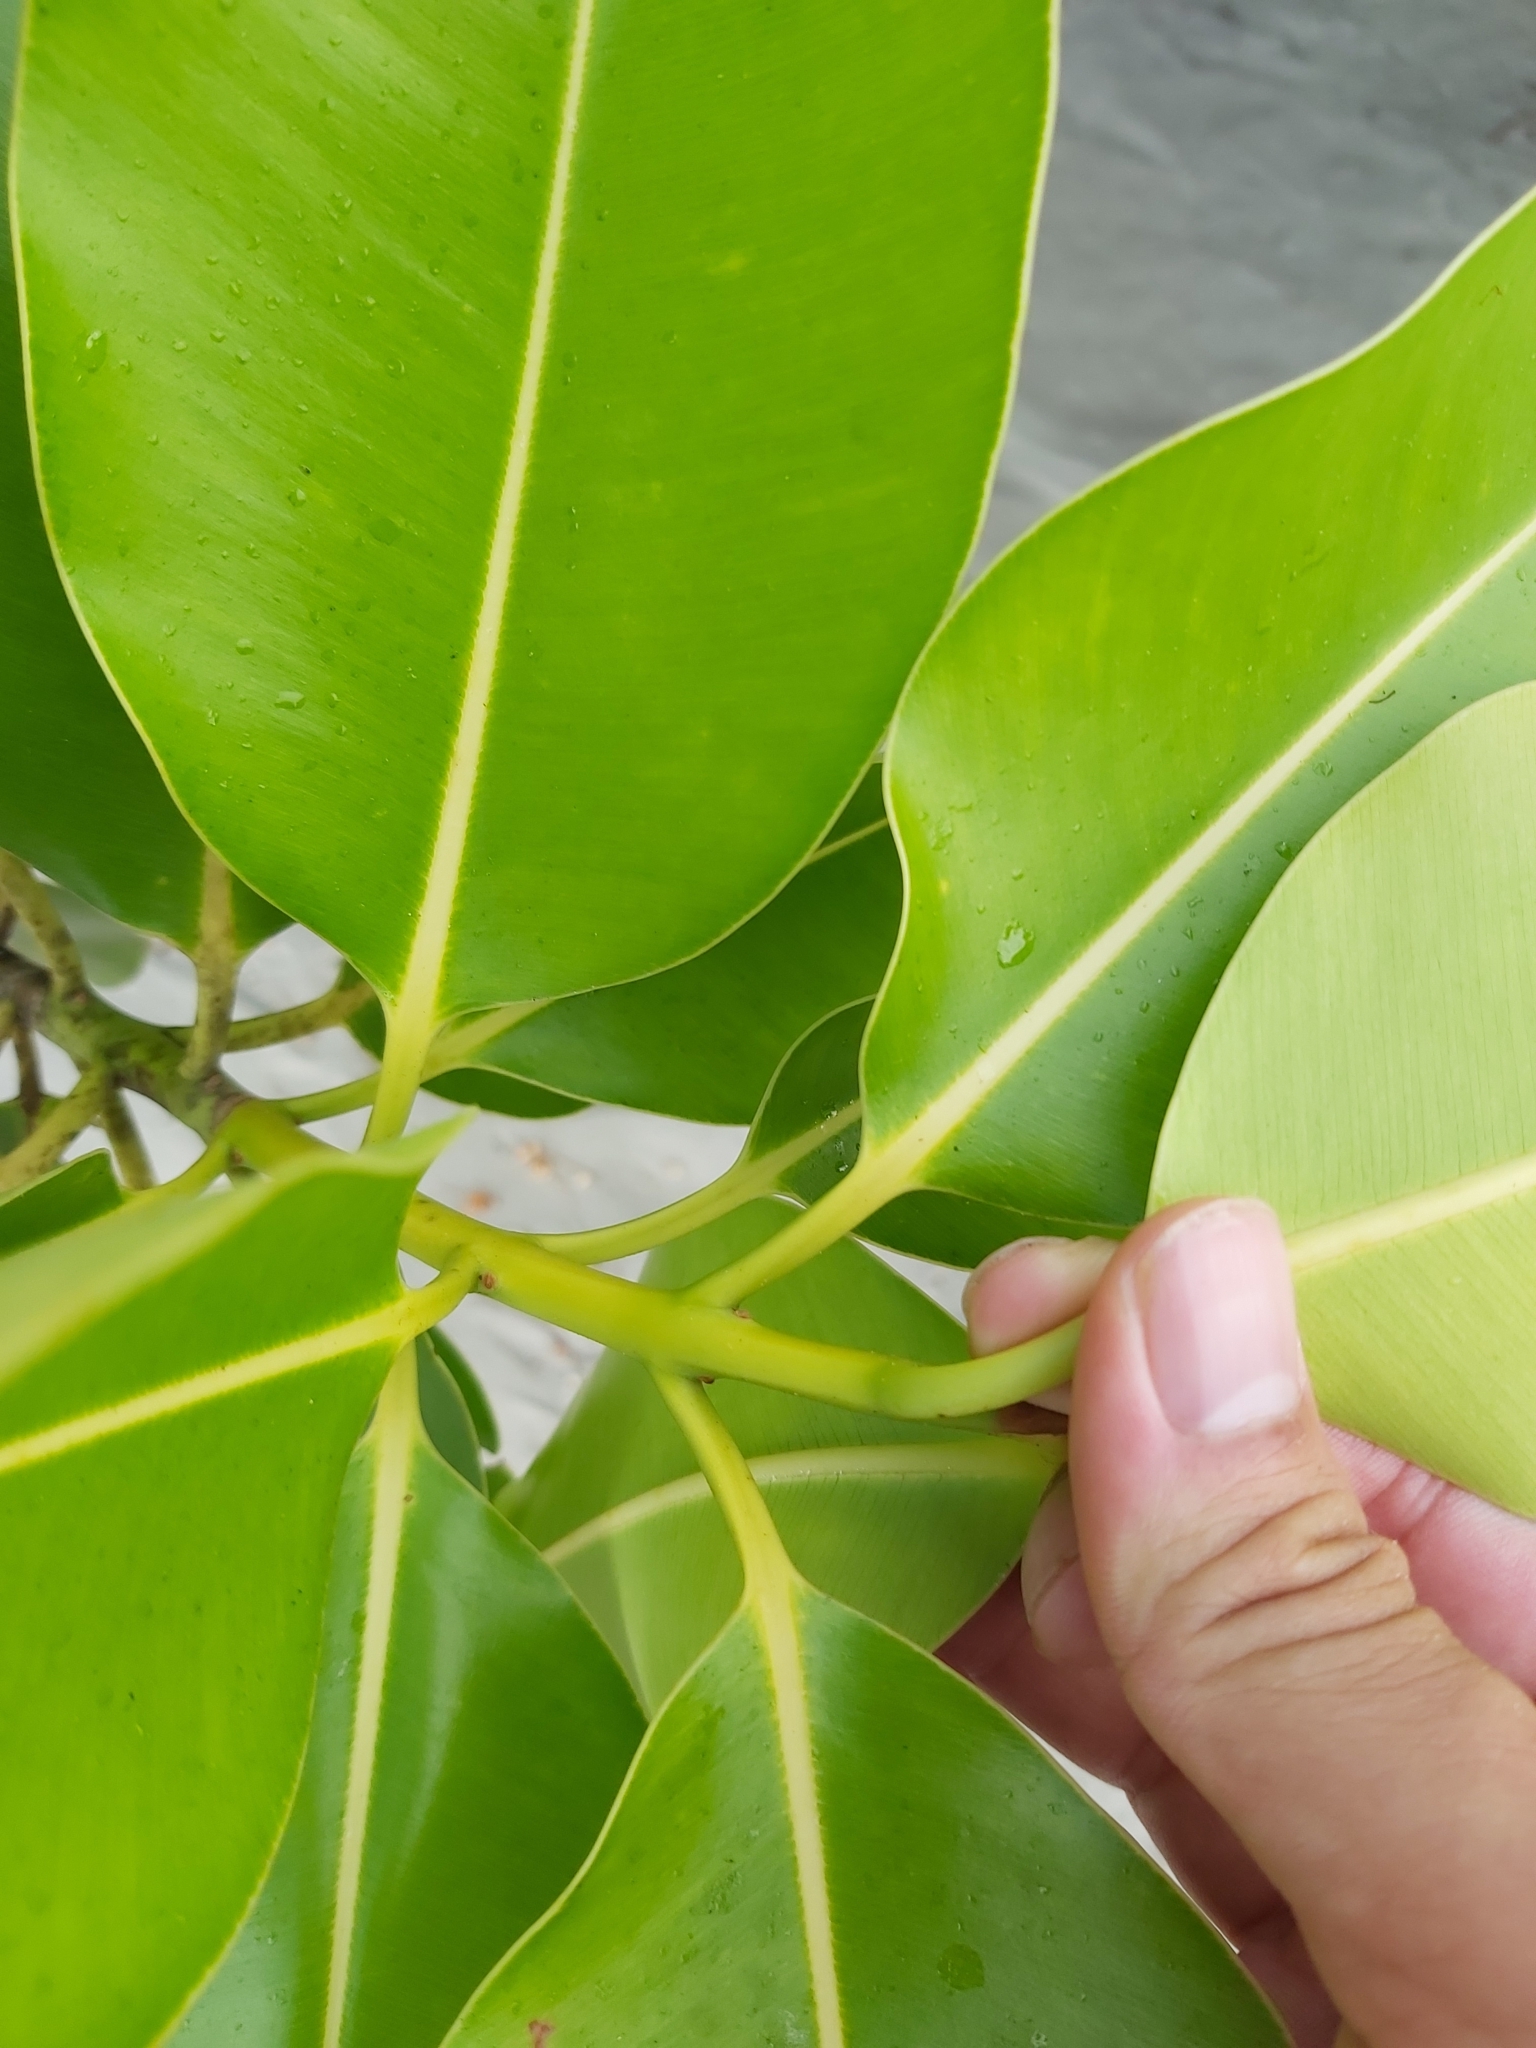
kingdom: Plantae
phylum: Tracheophyta
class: Magnoliopsida
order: Malpighiales
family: Calophyllaceae
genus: Calophyllum
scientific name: Calophyllum inophyllum
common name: Alexandrian laurel
